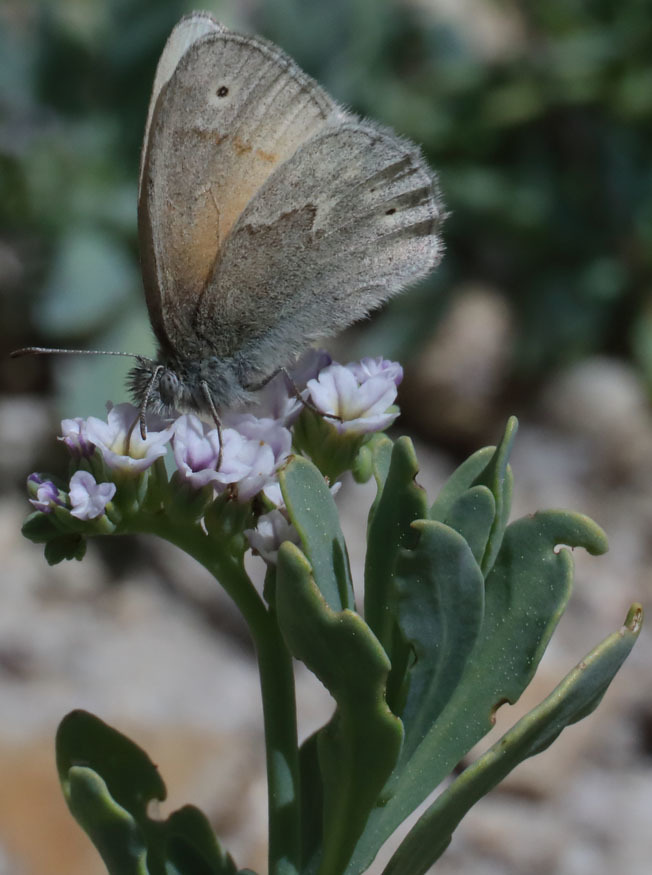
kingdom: Animalia
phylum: Arthropoda
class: Insecta
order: Lepidoptera
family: Nymphalidae
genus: Coenonympha
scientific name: Coenonympha california
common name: Common ringlet
